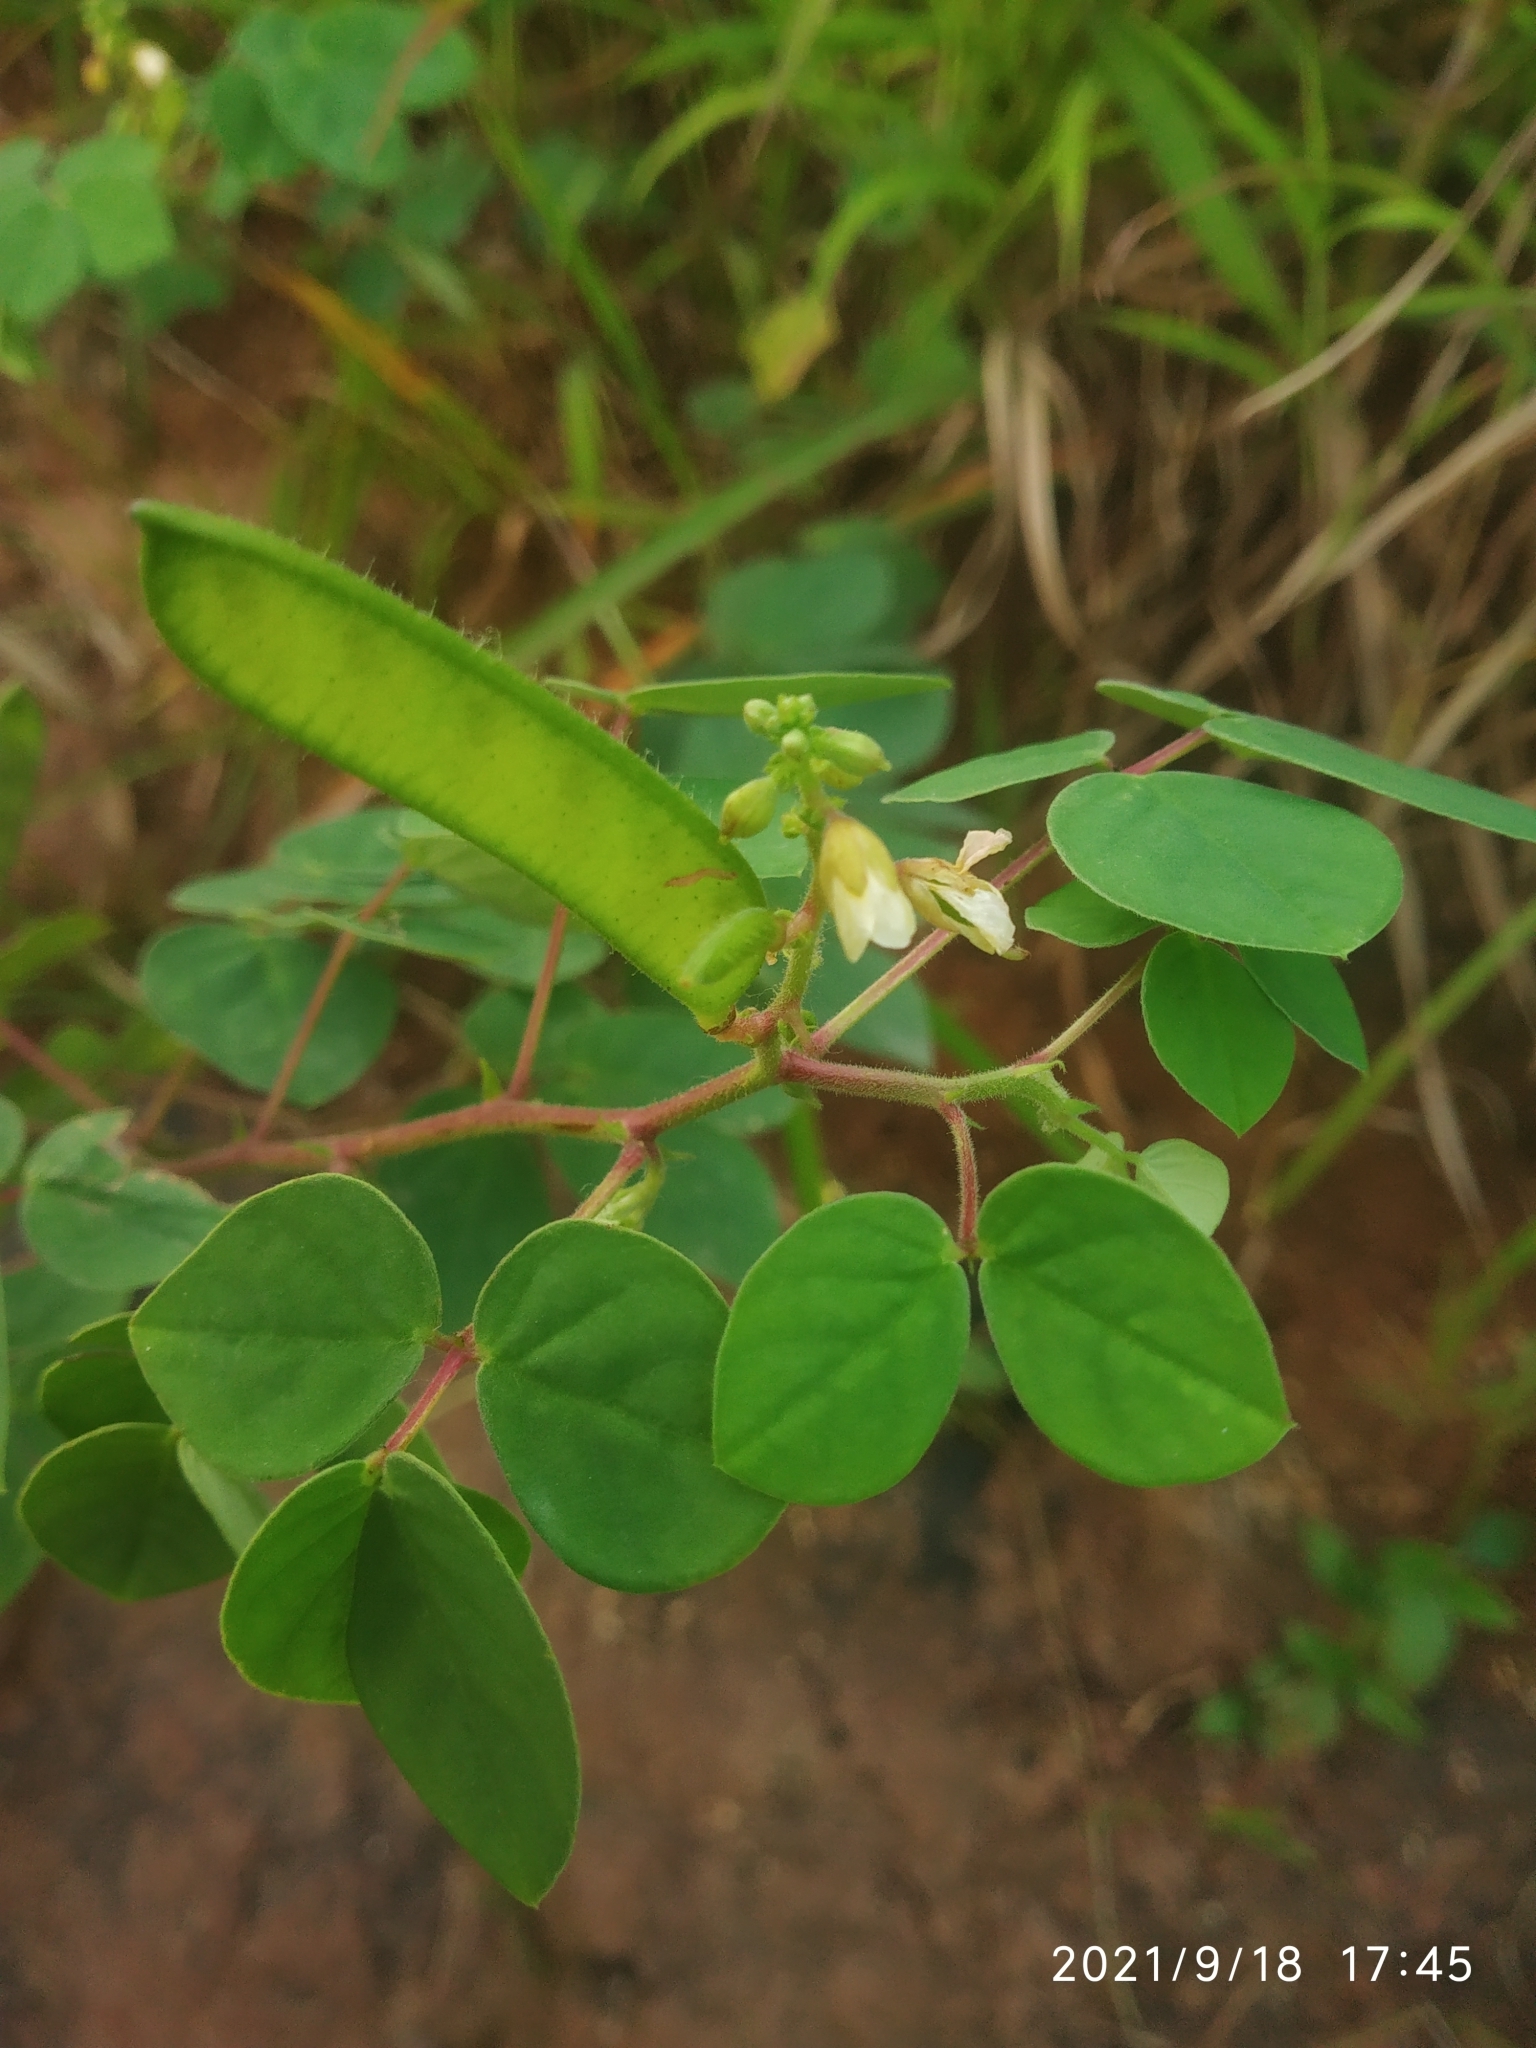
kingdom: Plantae
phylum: Tracheophyta
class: Magnoliopsida
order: Fabales
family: Fabaceae
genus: Chamaecrista
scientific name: Chamaecrista absus
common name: Tropical sensitive pea
